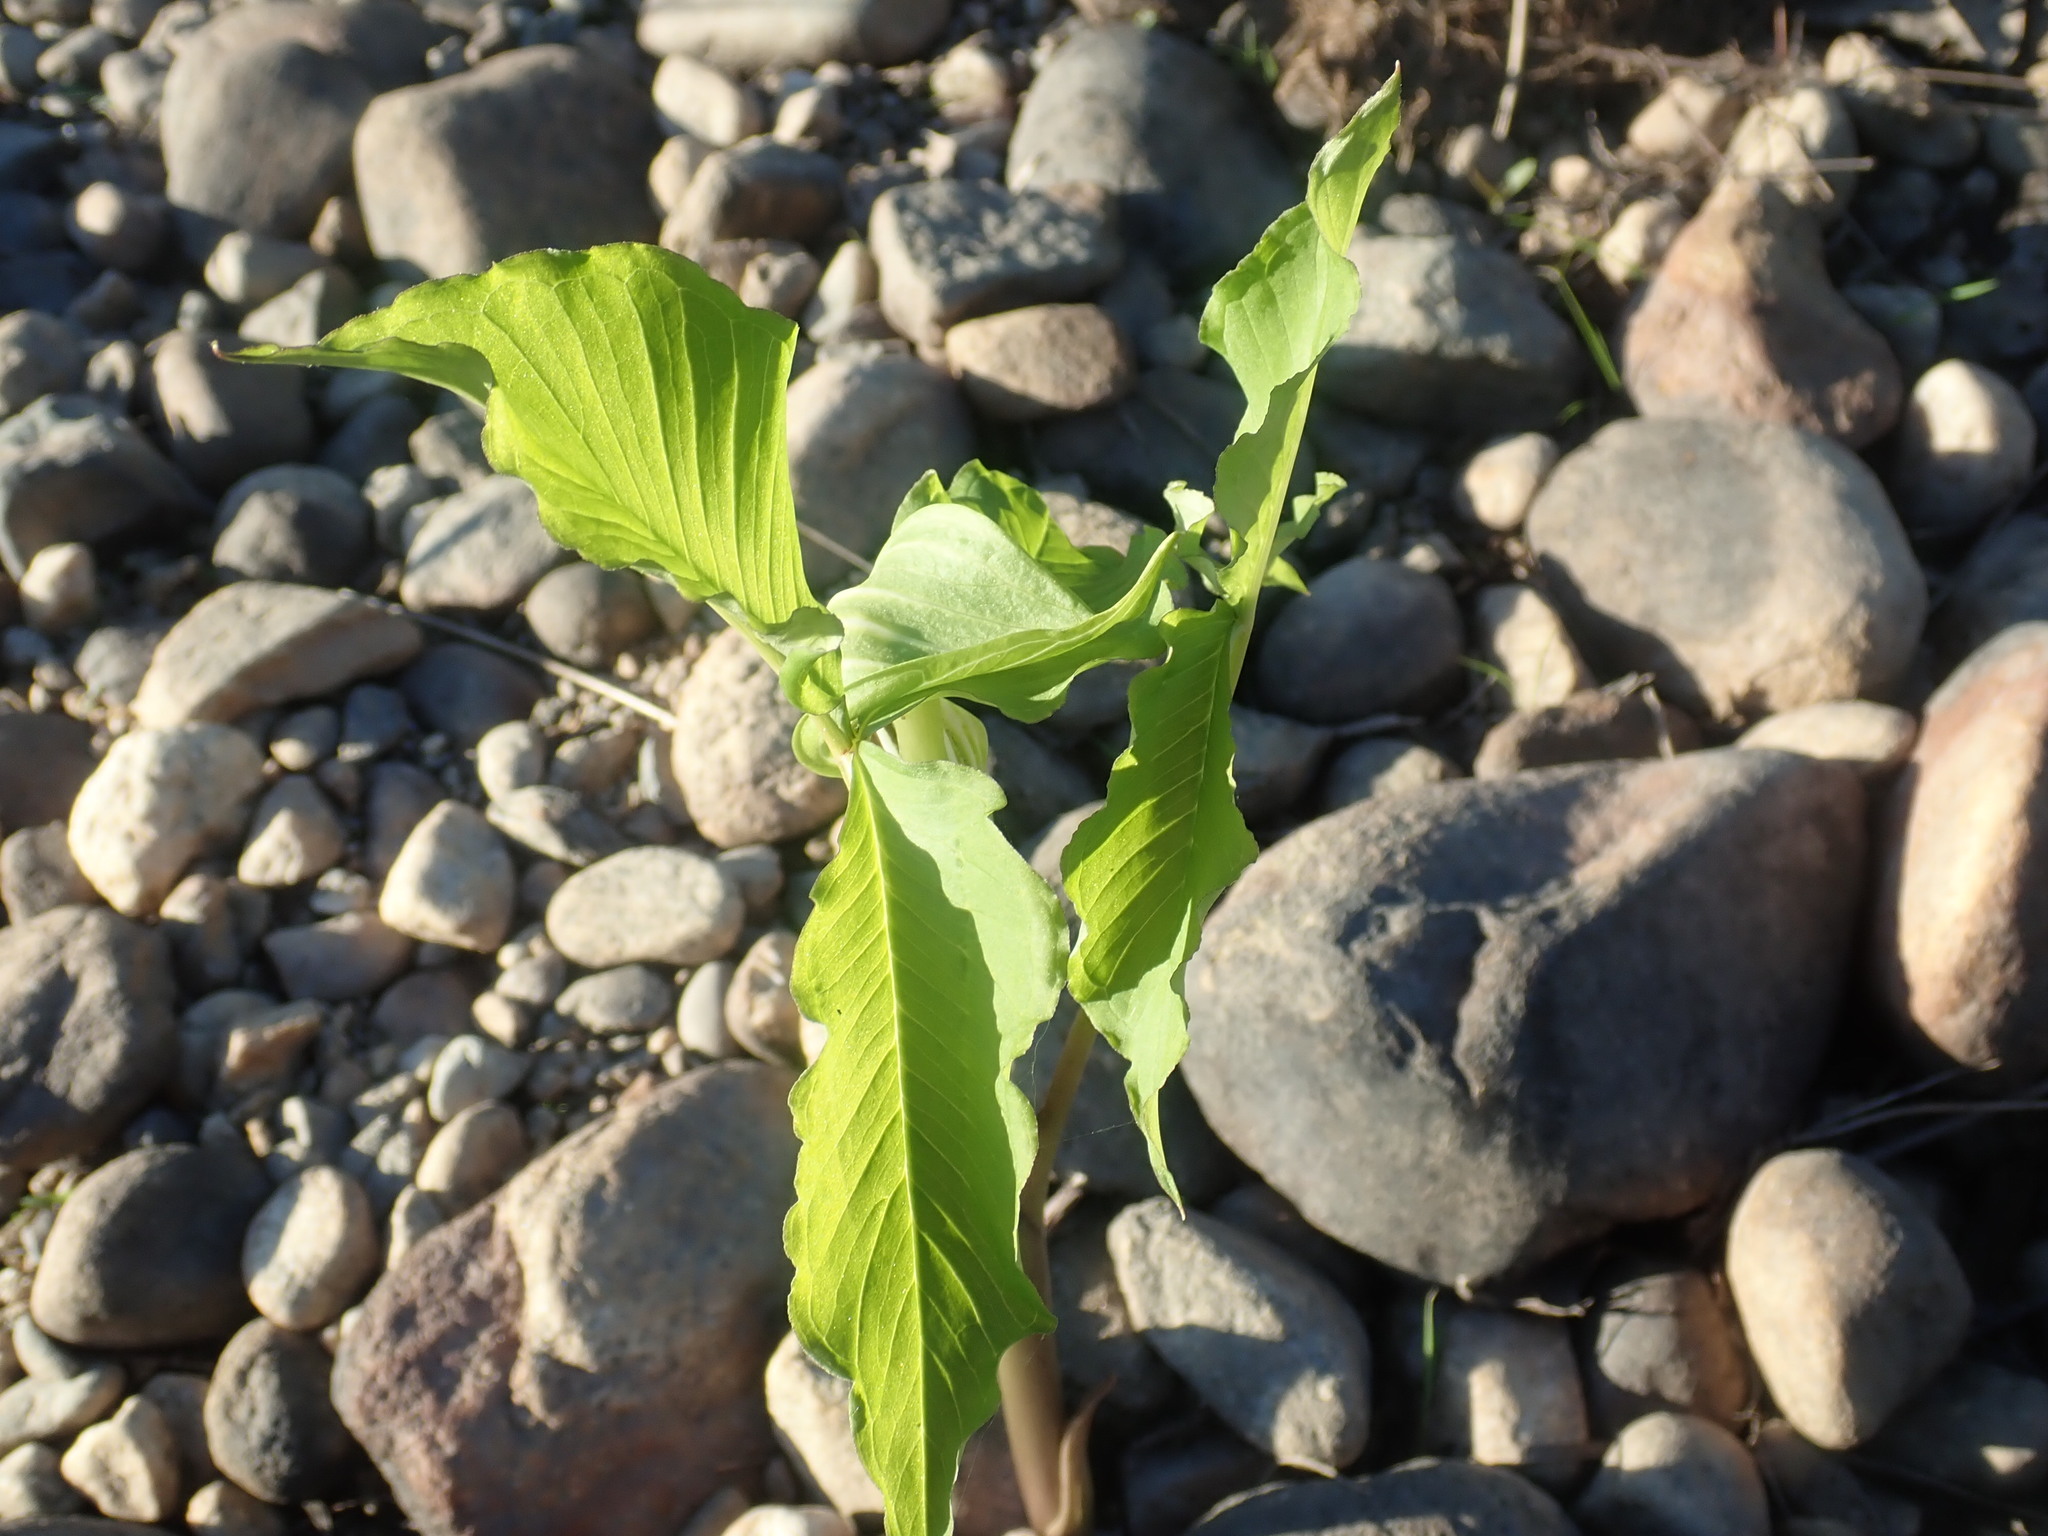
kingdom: Plantae
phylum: Tracheophyta
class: Liliopsida
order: Alismatales
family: Araceae
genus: Arisaema
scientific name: Arisaema triphyllum
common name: Jack-in-the-pulpit
